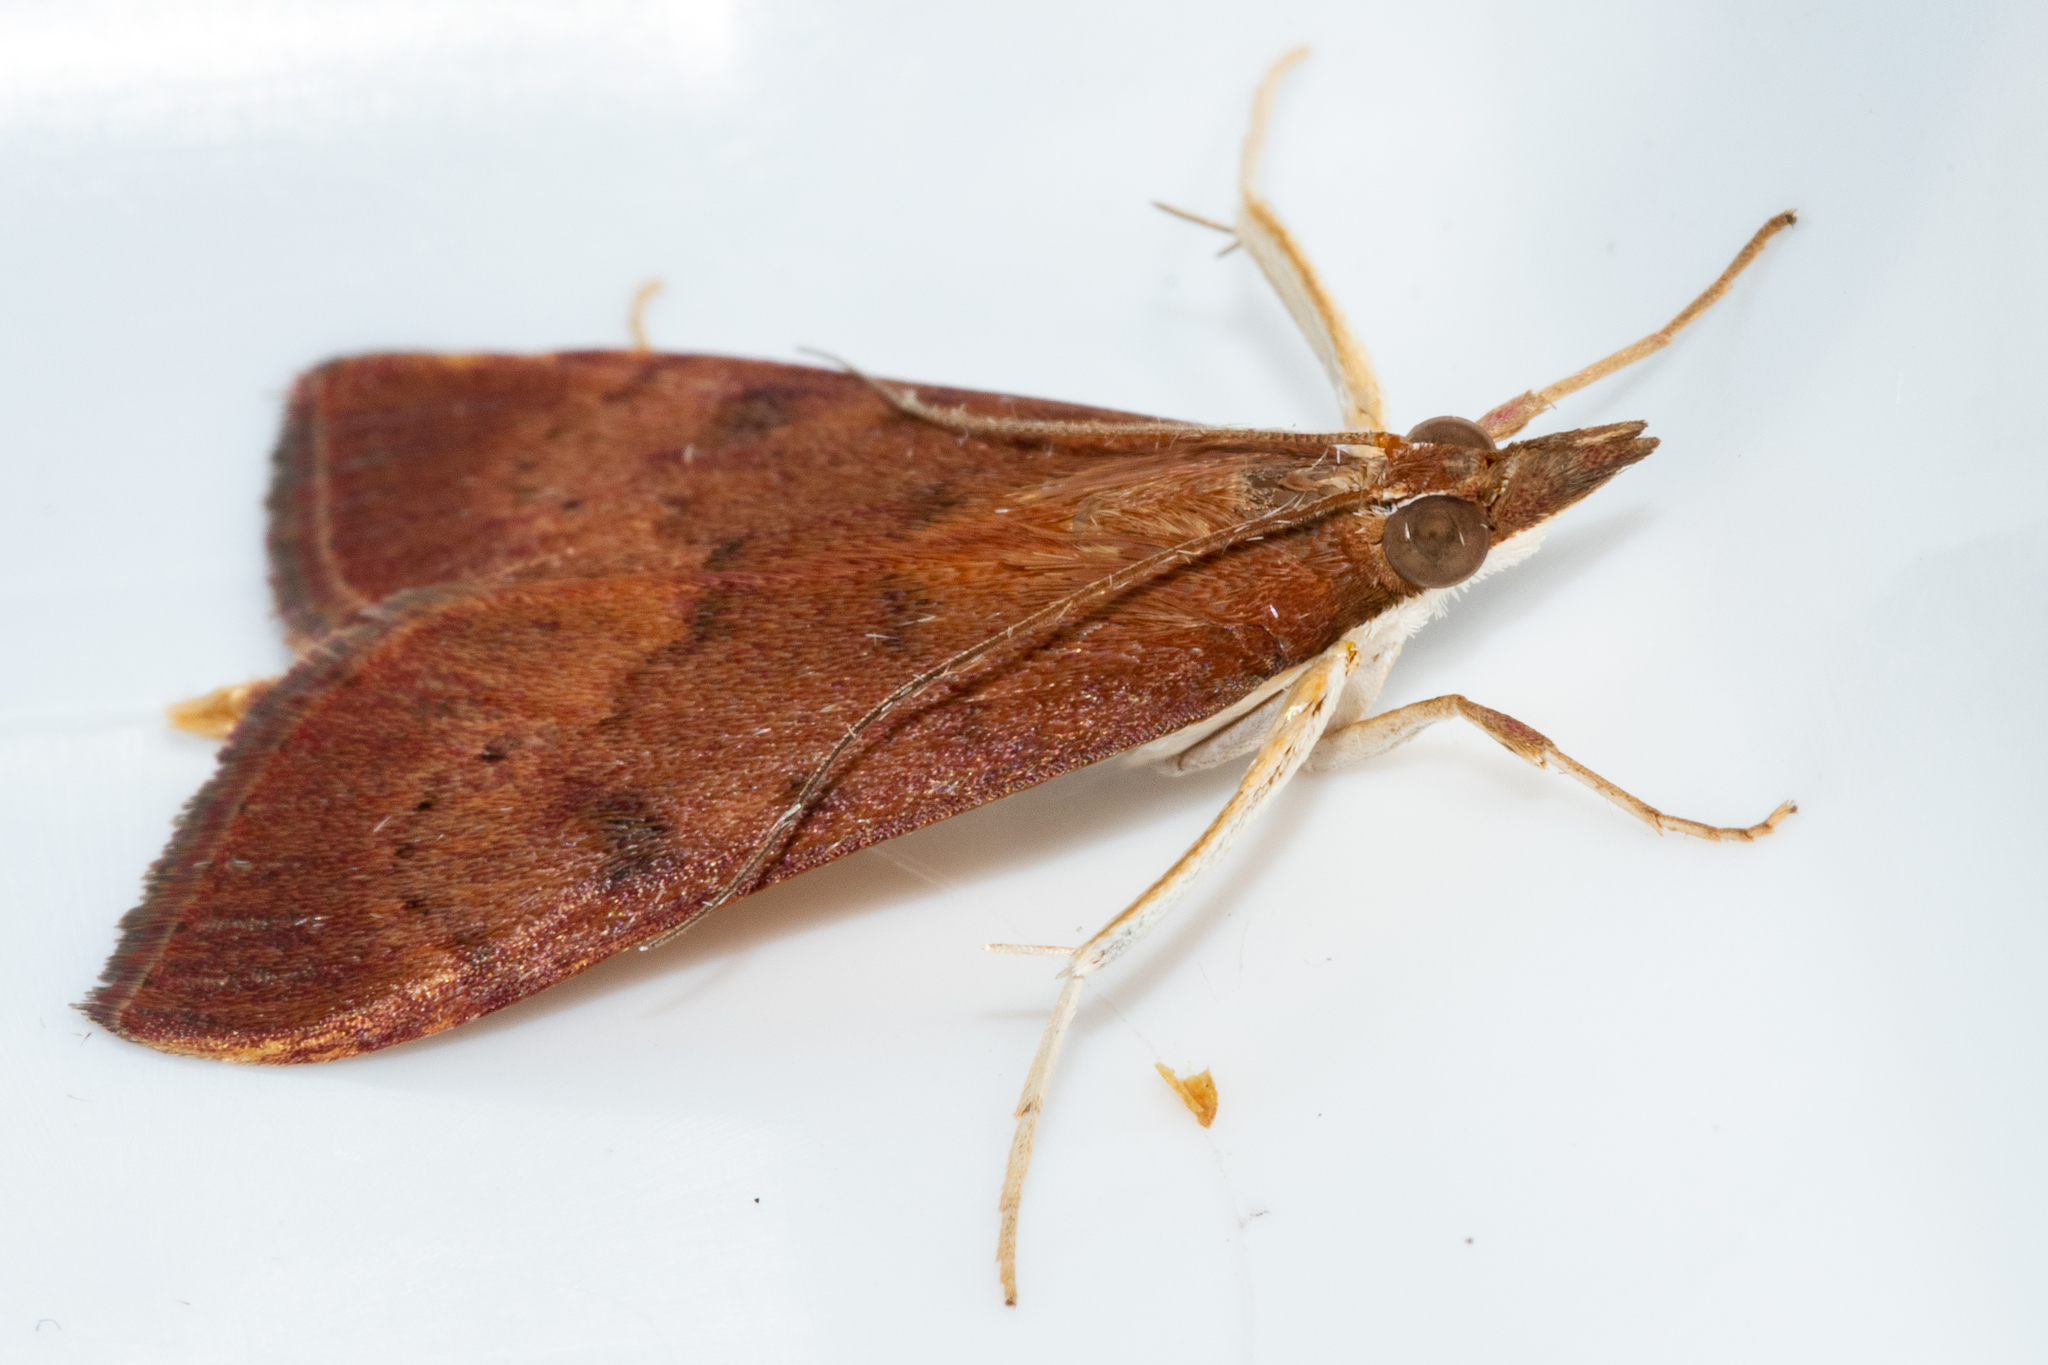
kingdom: Animalia
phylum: Arthropoda
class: Insecta
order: Lepidoptera
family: Crambidae
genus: Uresiphita
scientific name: Uresiphita gilvata
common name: Yellow-underwing pearl
